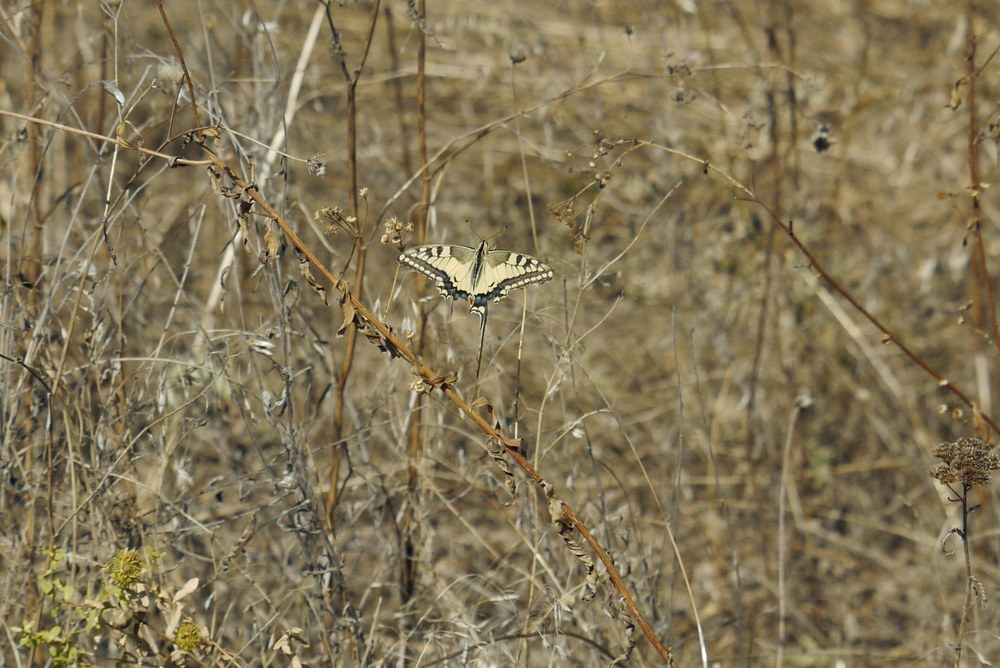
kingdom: Animalia
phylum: Arthropoda
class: Insecta
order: Lepidoptera
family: Papilionidae
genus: Papilio
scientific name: Papilio machaon
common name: Swallowtail
